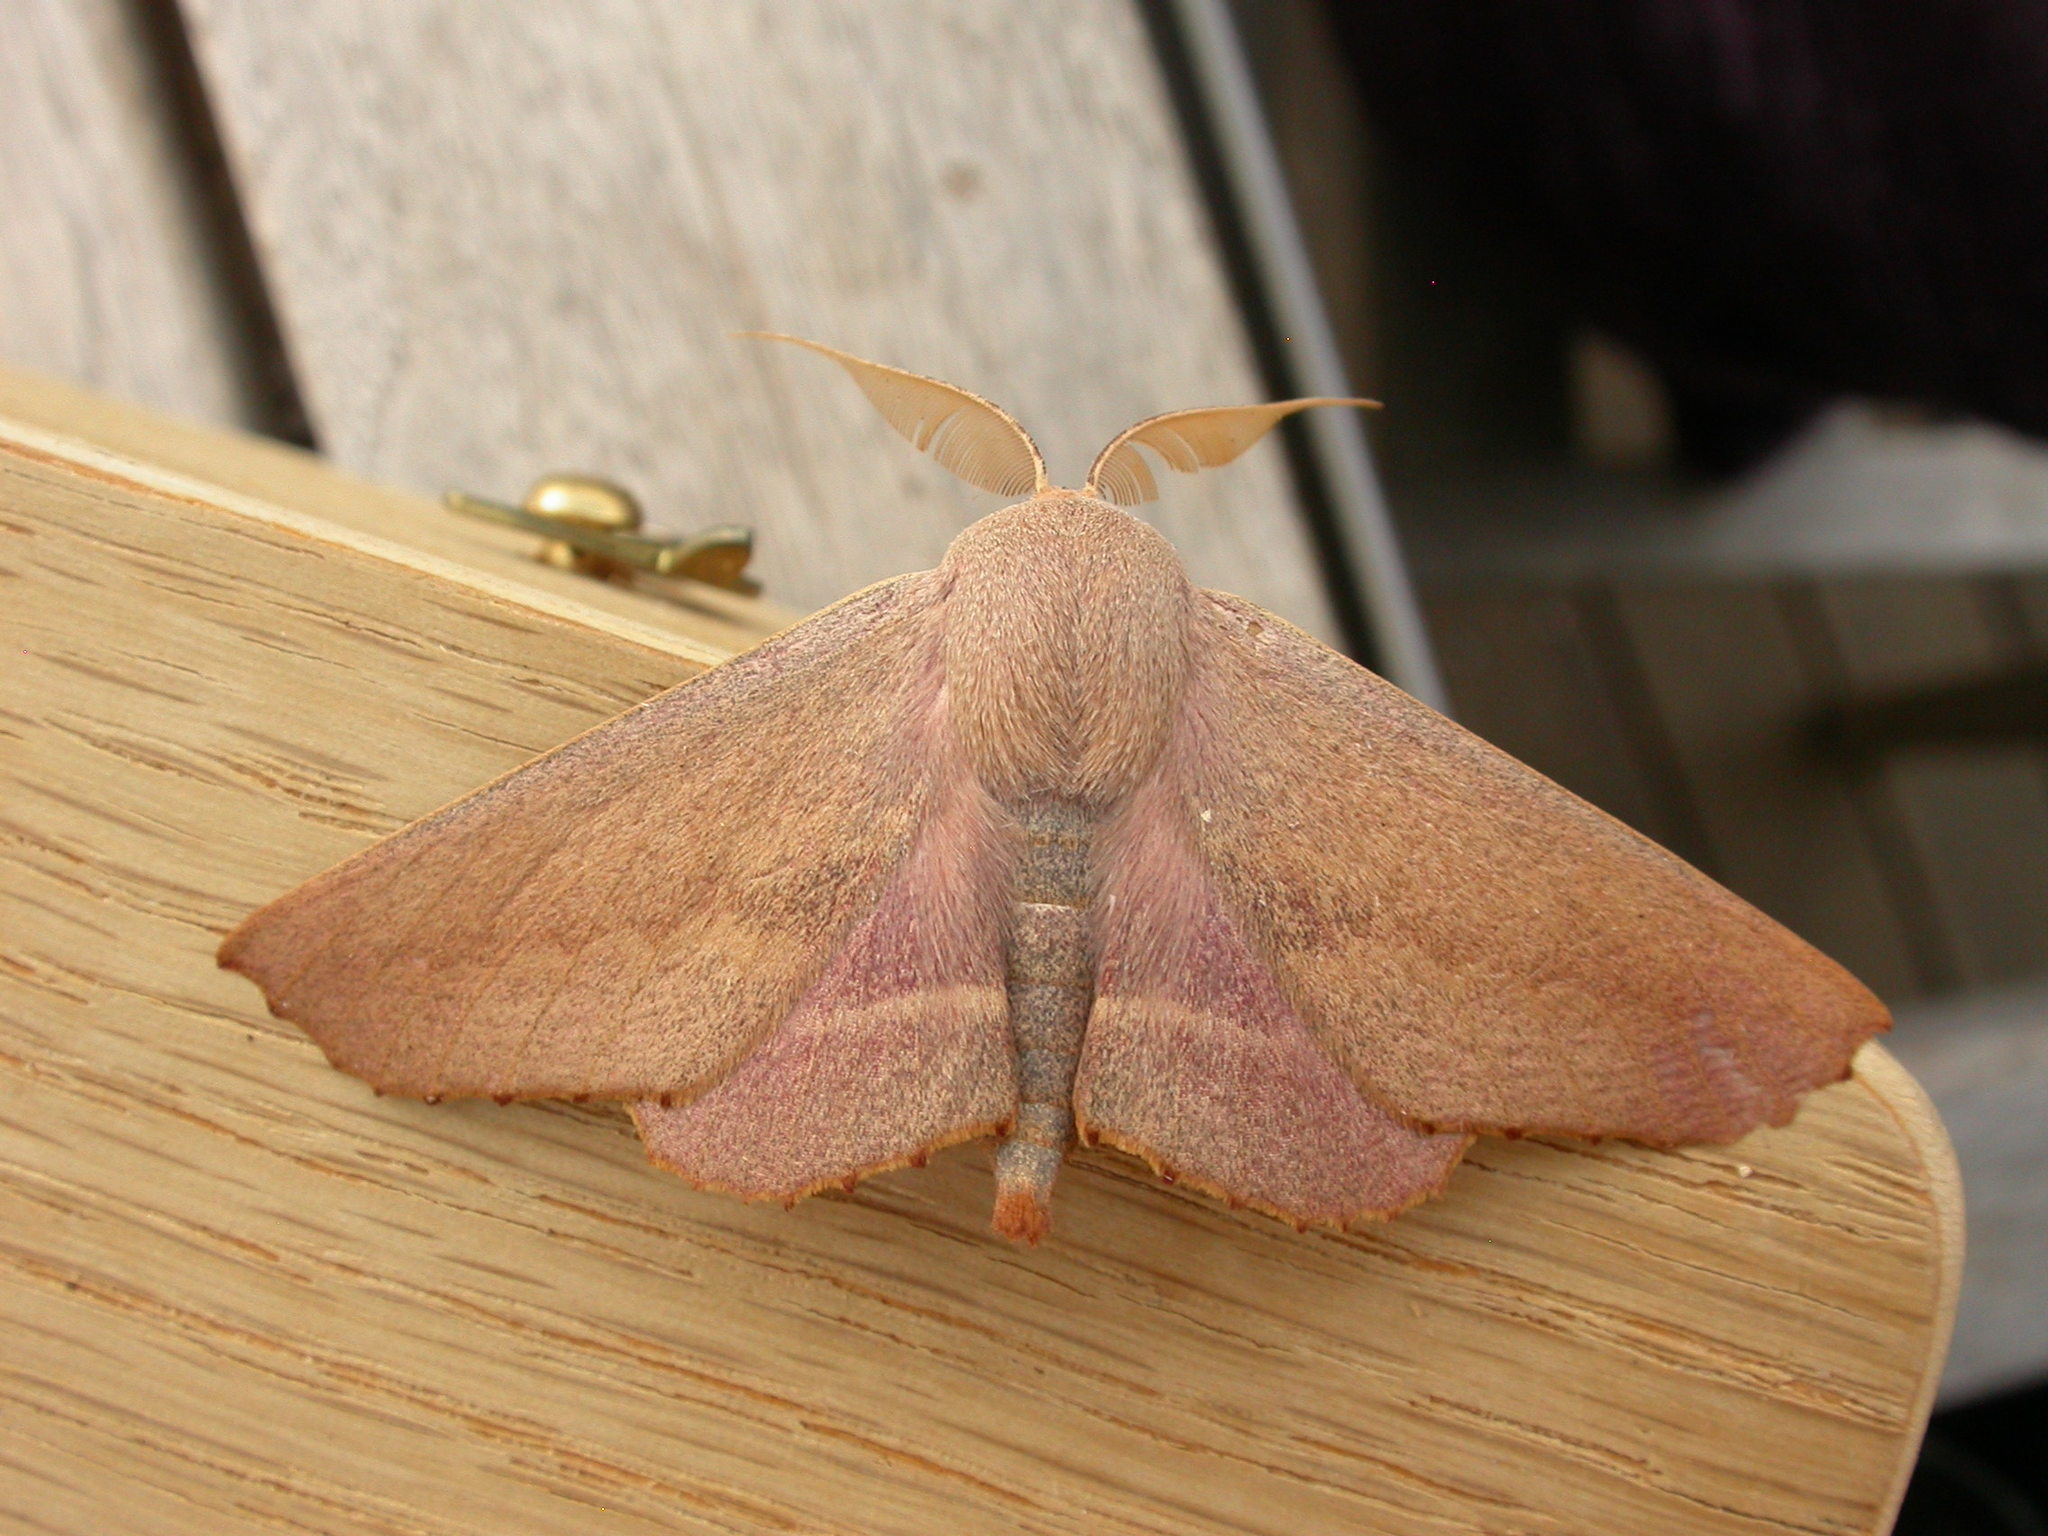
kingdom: Animalia
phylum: Arthropoda
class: Insecta
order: Lepidoptera
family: Geometridae
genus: Monoctenia
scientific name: Monoctenia smerintharia
